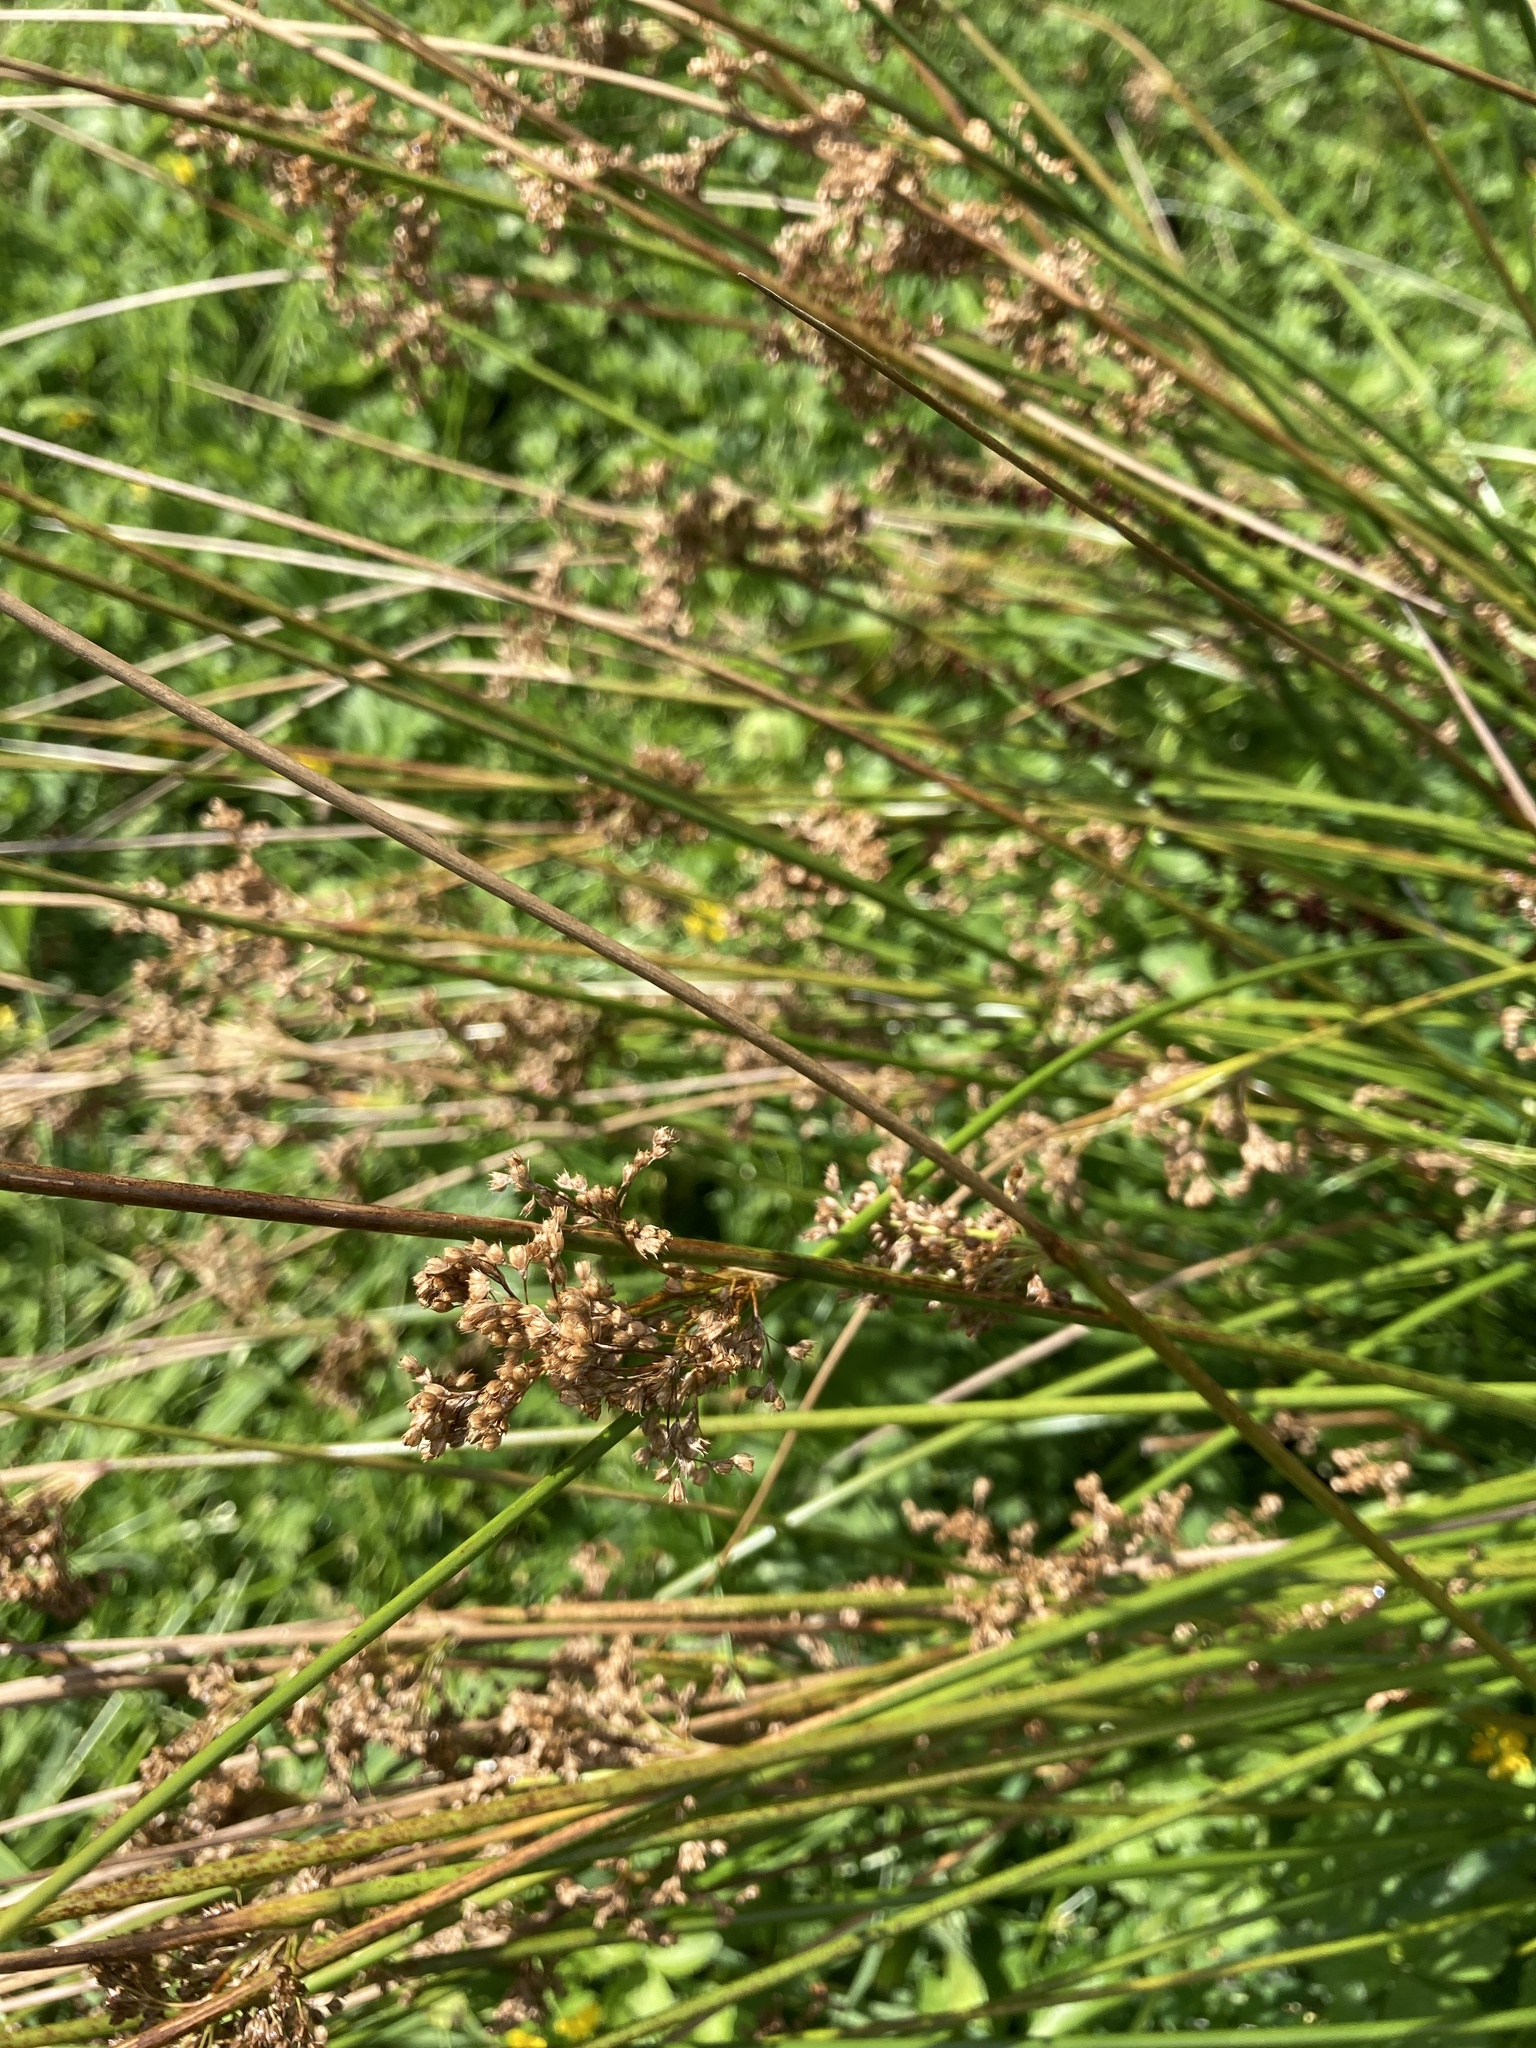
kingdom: Plantae
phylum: Tracheophyta
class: Liliopsida
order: Poales
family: Juncaceae
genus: Juncus
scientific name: Juncus effusus
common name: Soft rush
